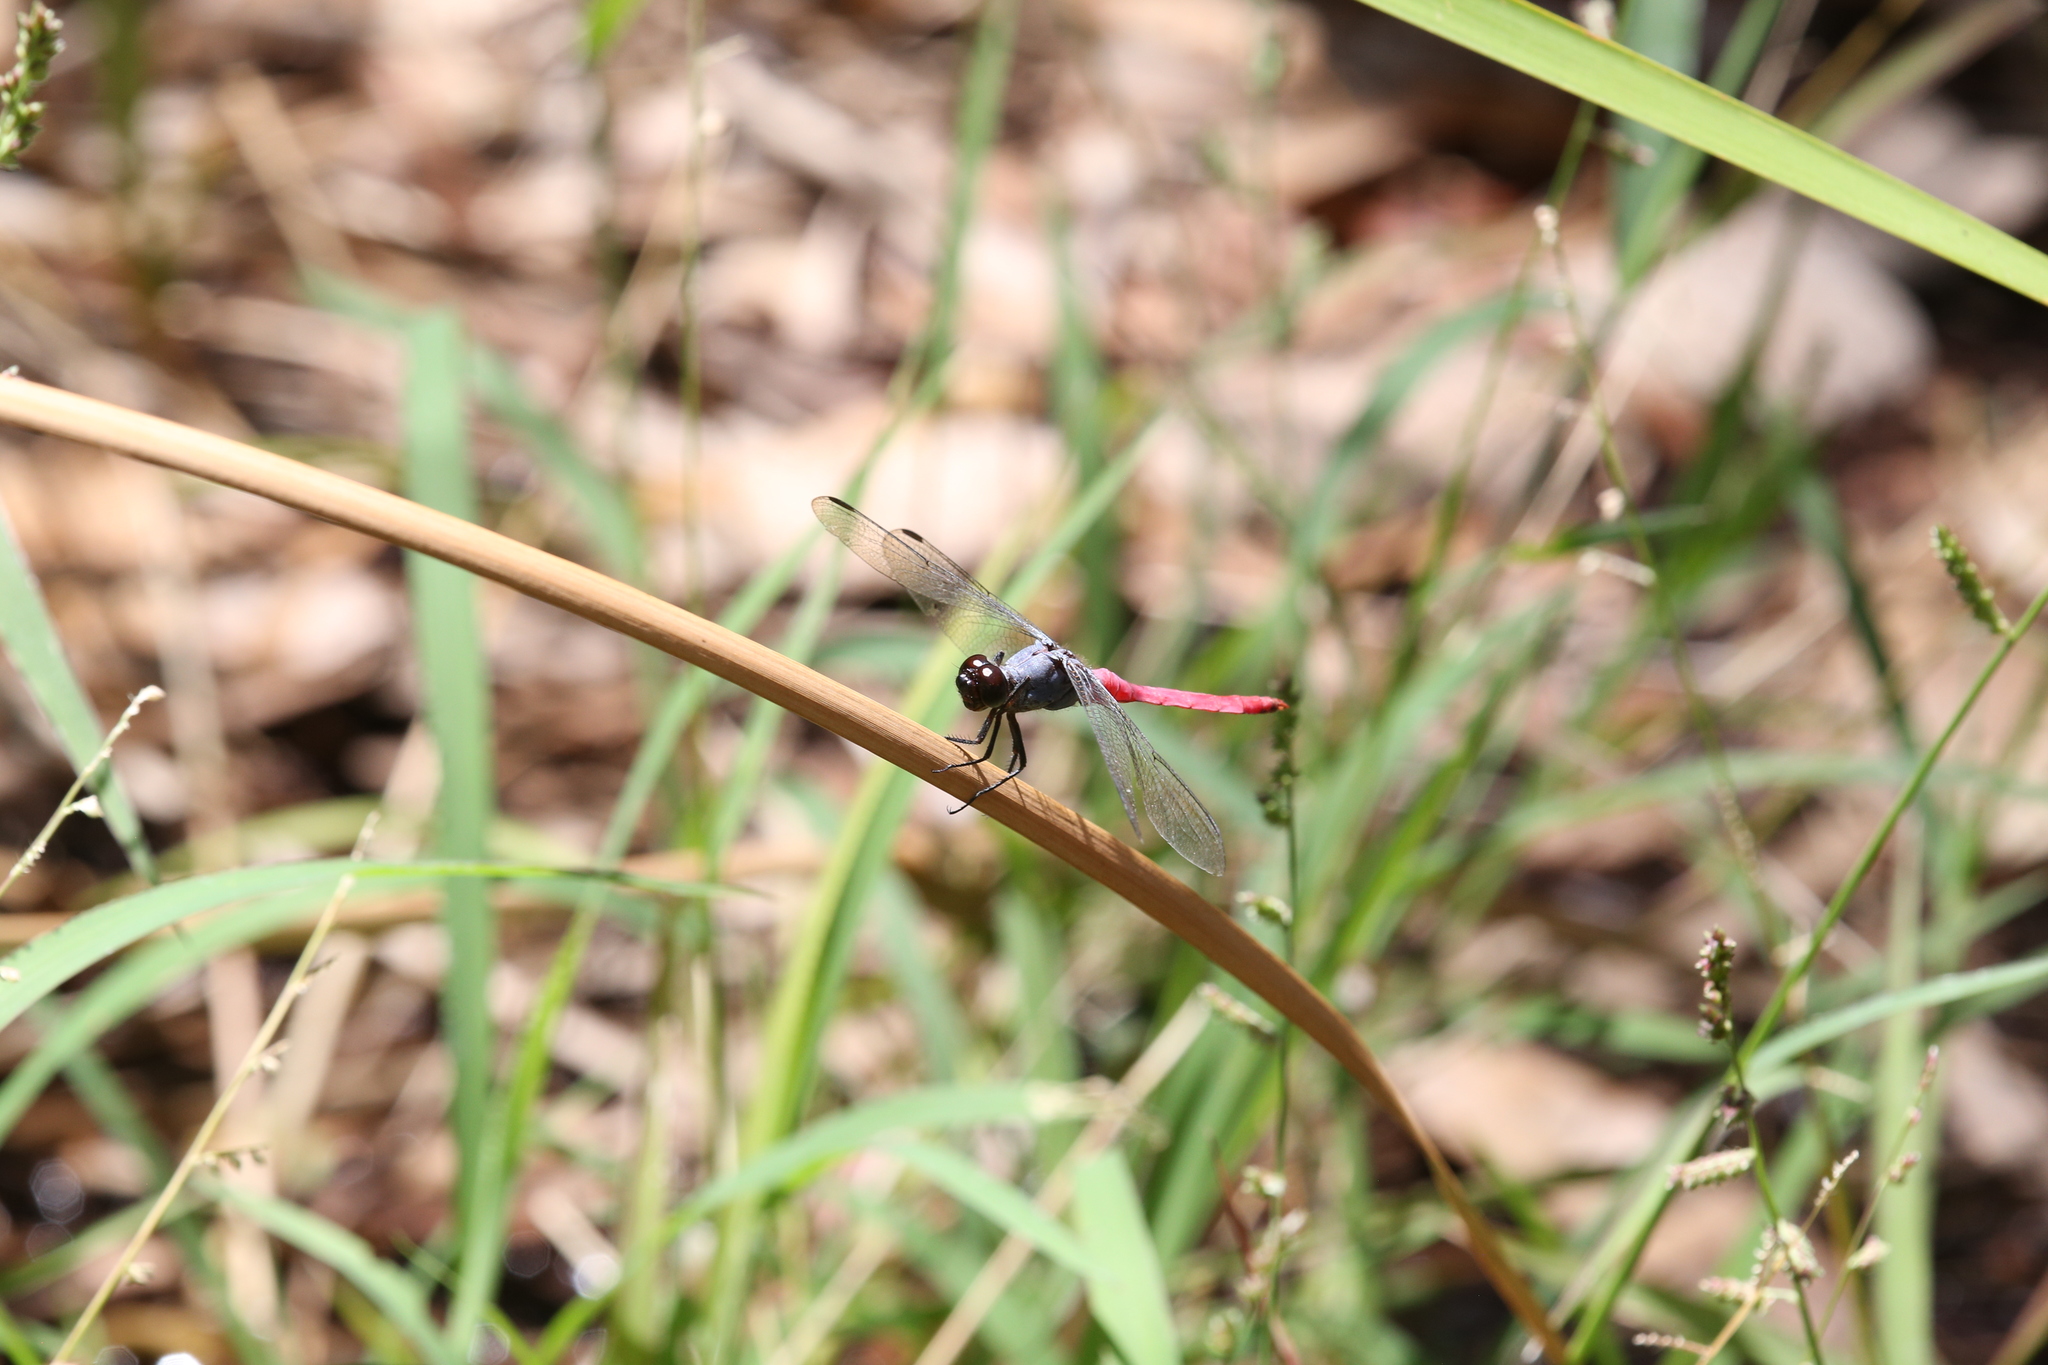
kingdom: Animalia
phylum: Arthropoda
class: Insecta
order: Odonata
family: Libellulidae
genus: Orthetrum
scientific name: Orthetrum migratum
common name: Rosy skimmer
